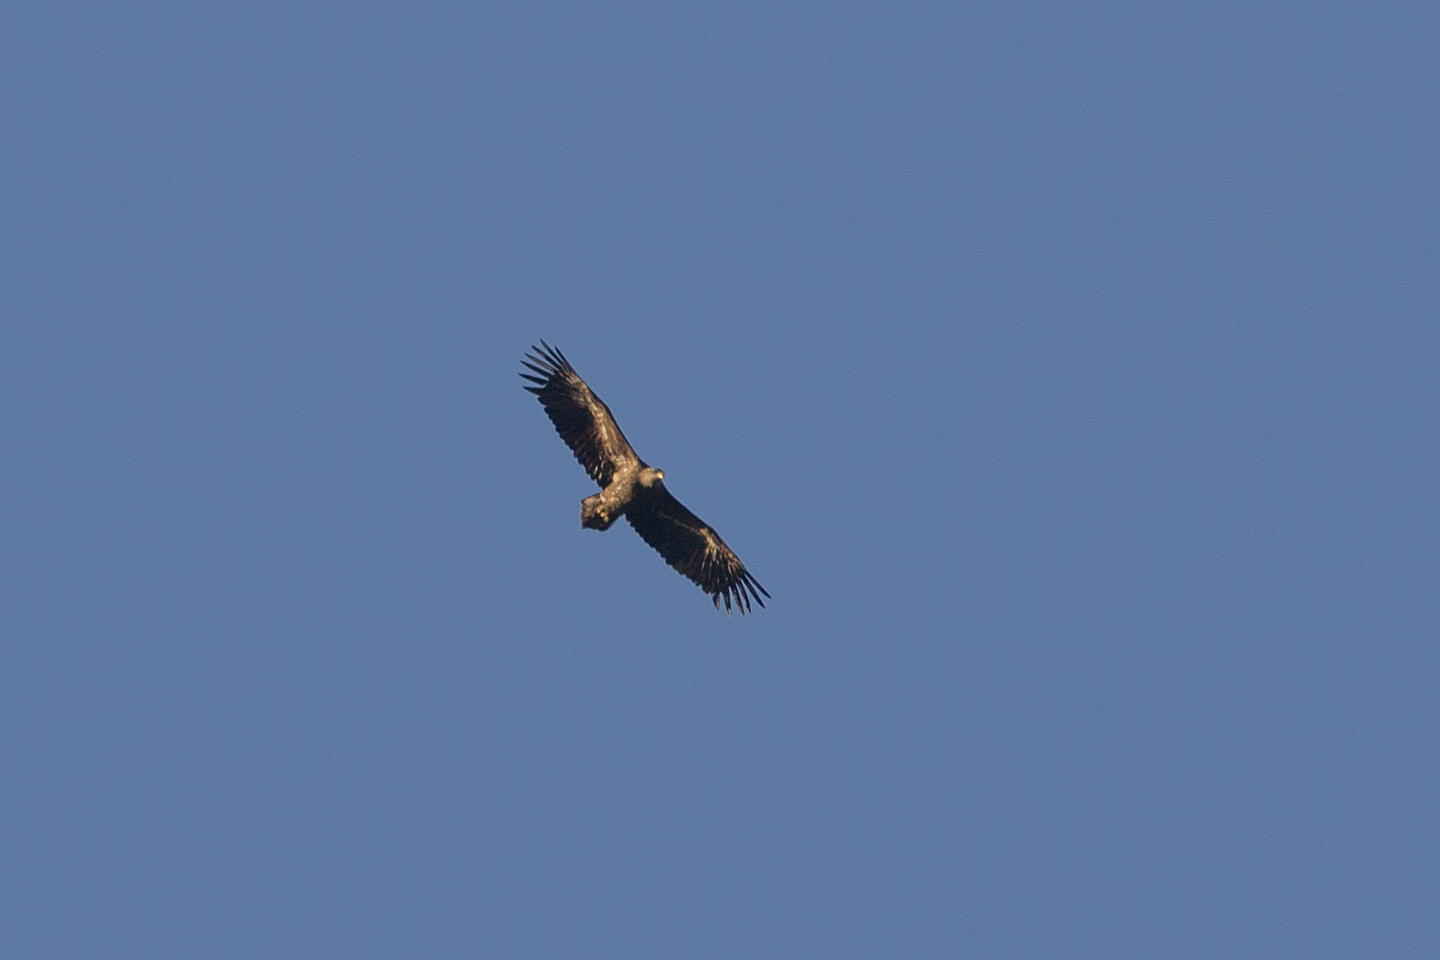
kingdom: Animalia
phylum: Chordata
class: Aves
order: Accipitriformes
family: Accipitridae
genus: Haliaeetus
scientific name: Haliaeetus albicilla
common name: White-tailed eagle
